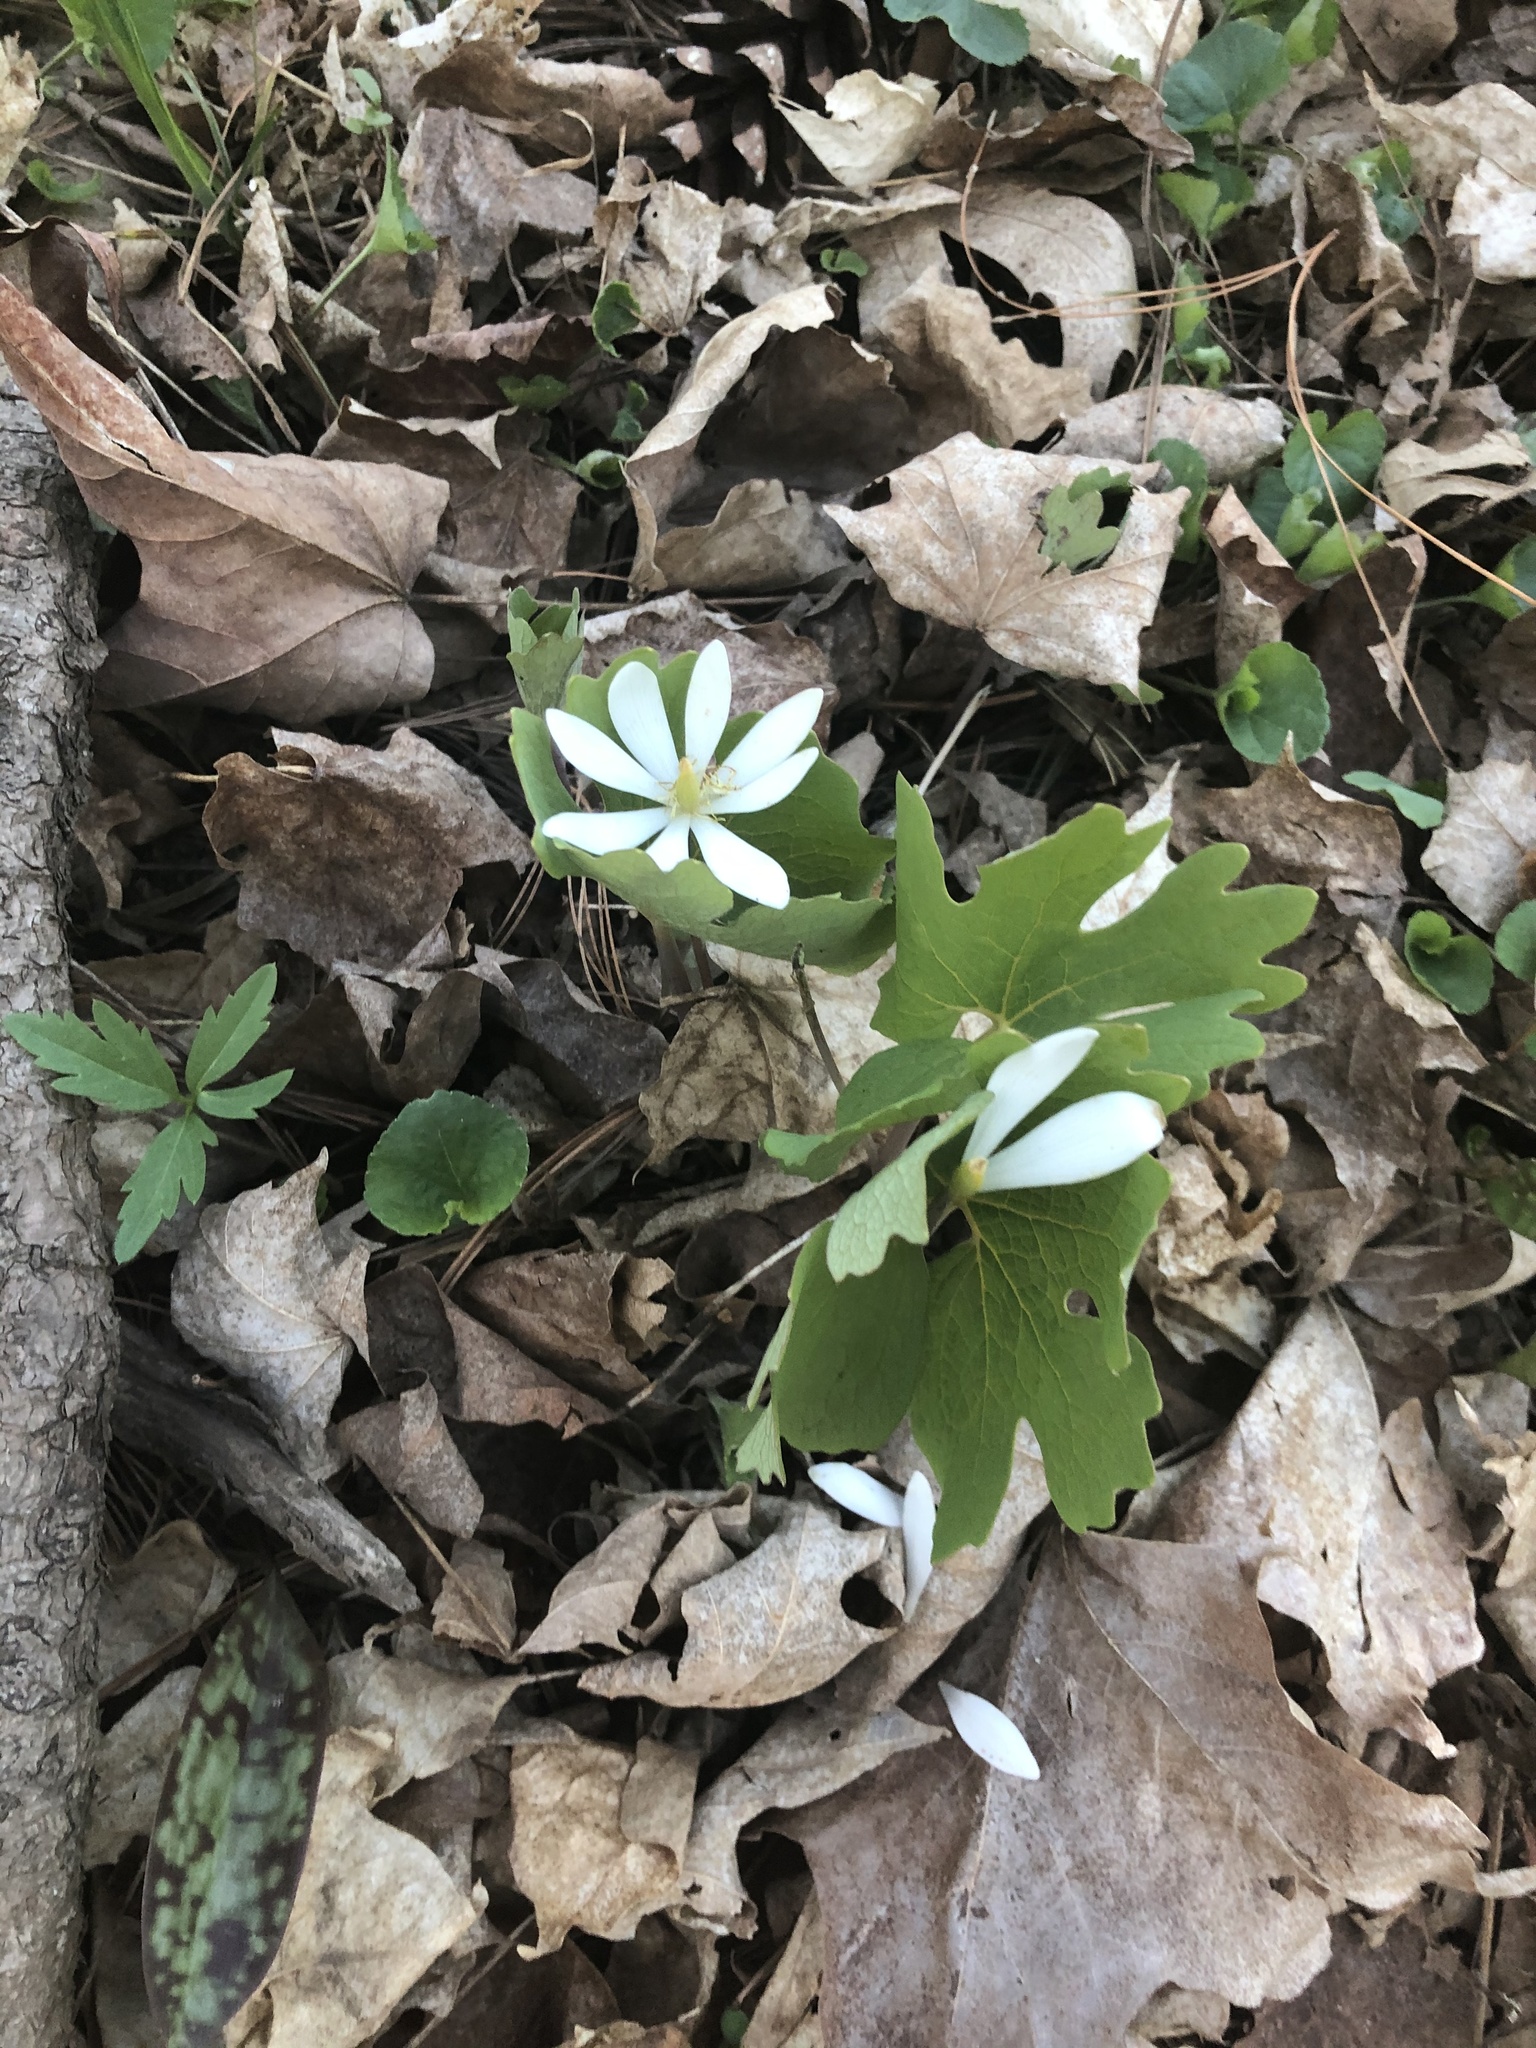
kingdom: Plantae
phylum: Tracheophyta
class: Magnoliopsida
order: Ranunculales
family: Papaveraceae
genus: Sanguinaria
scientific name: Sanguinaria canadensis
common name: Bloodroot
